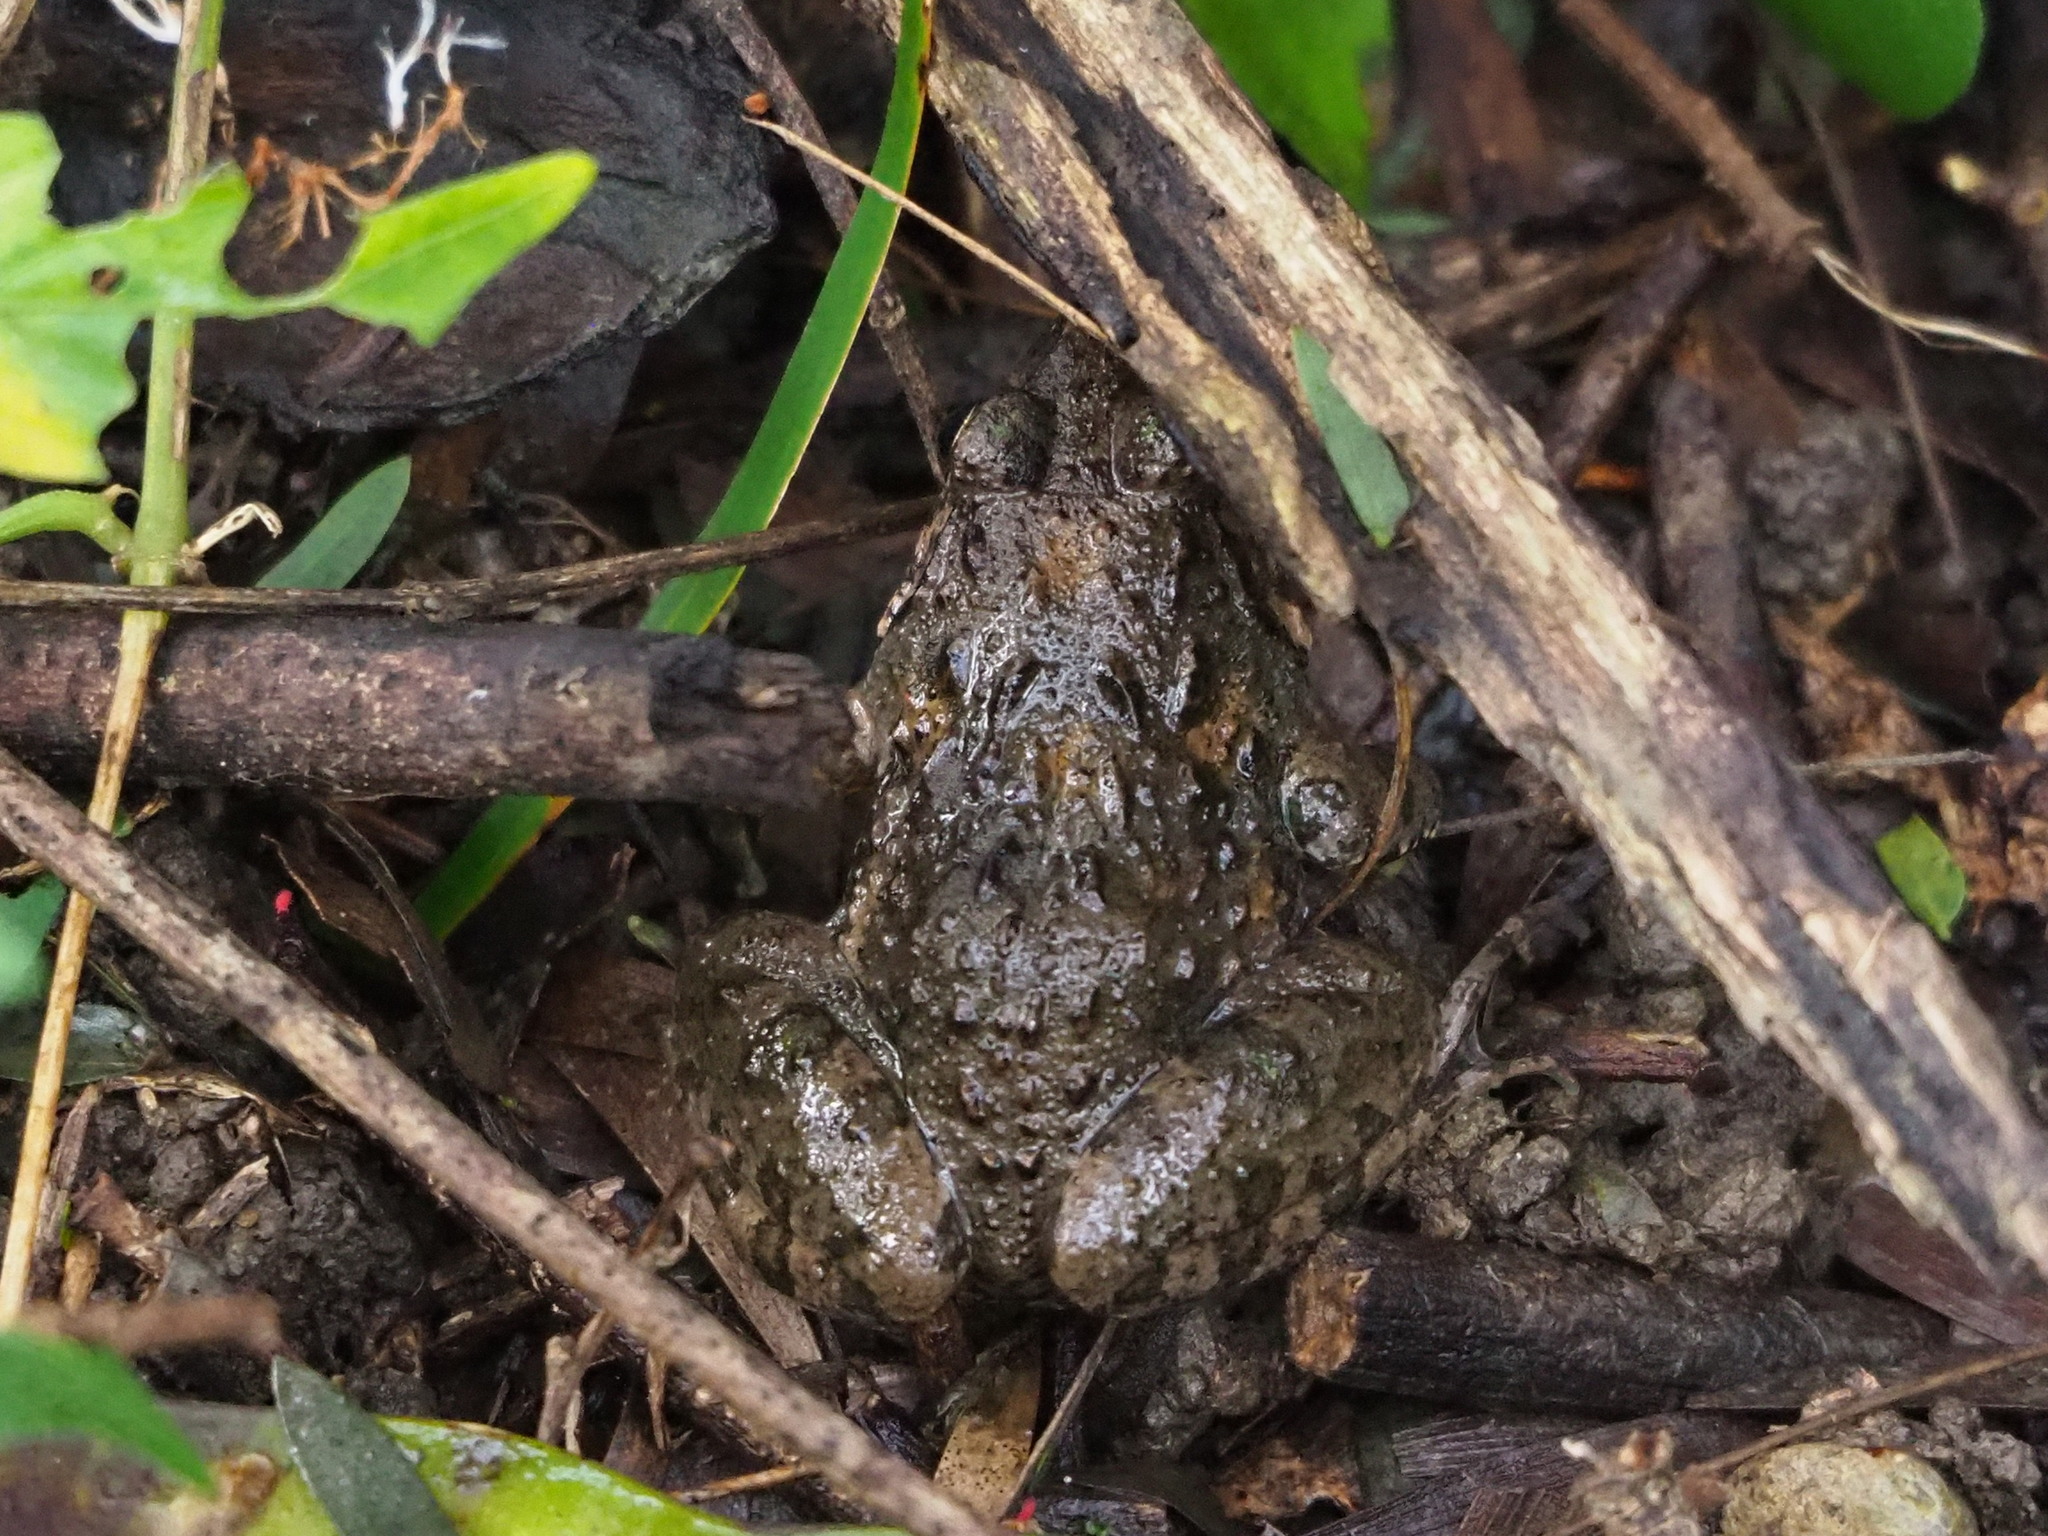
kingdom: Animalia
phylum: Chordata
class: Amphibia
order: Anura
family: Dicroglossidae
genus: Fejervarya
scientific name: Fejervarya limnocharis
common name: Asian grass frog/common pond frog/field frog/grass frog/indian rice frog
